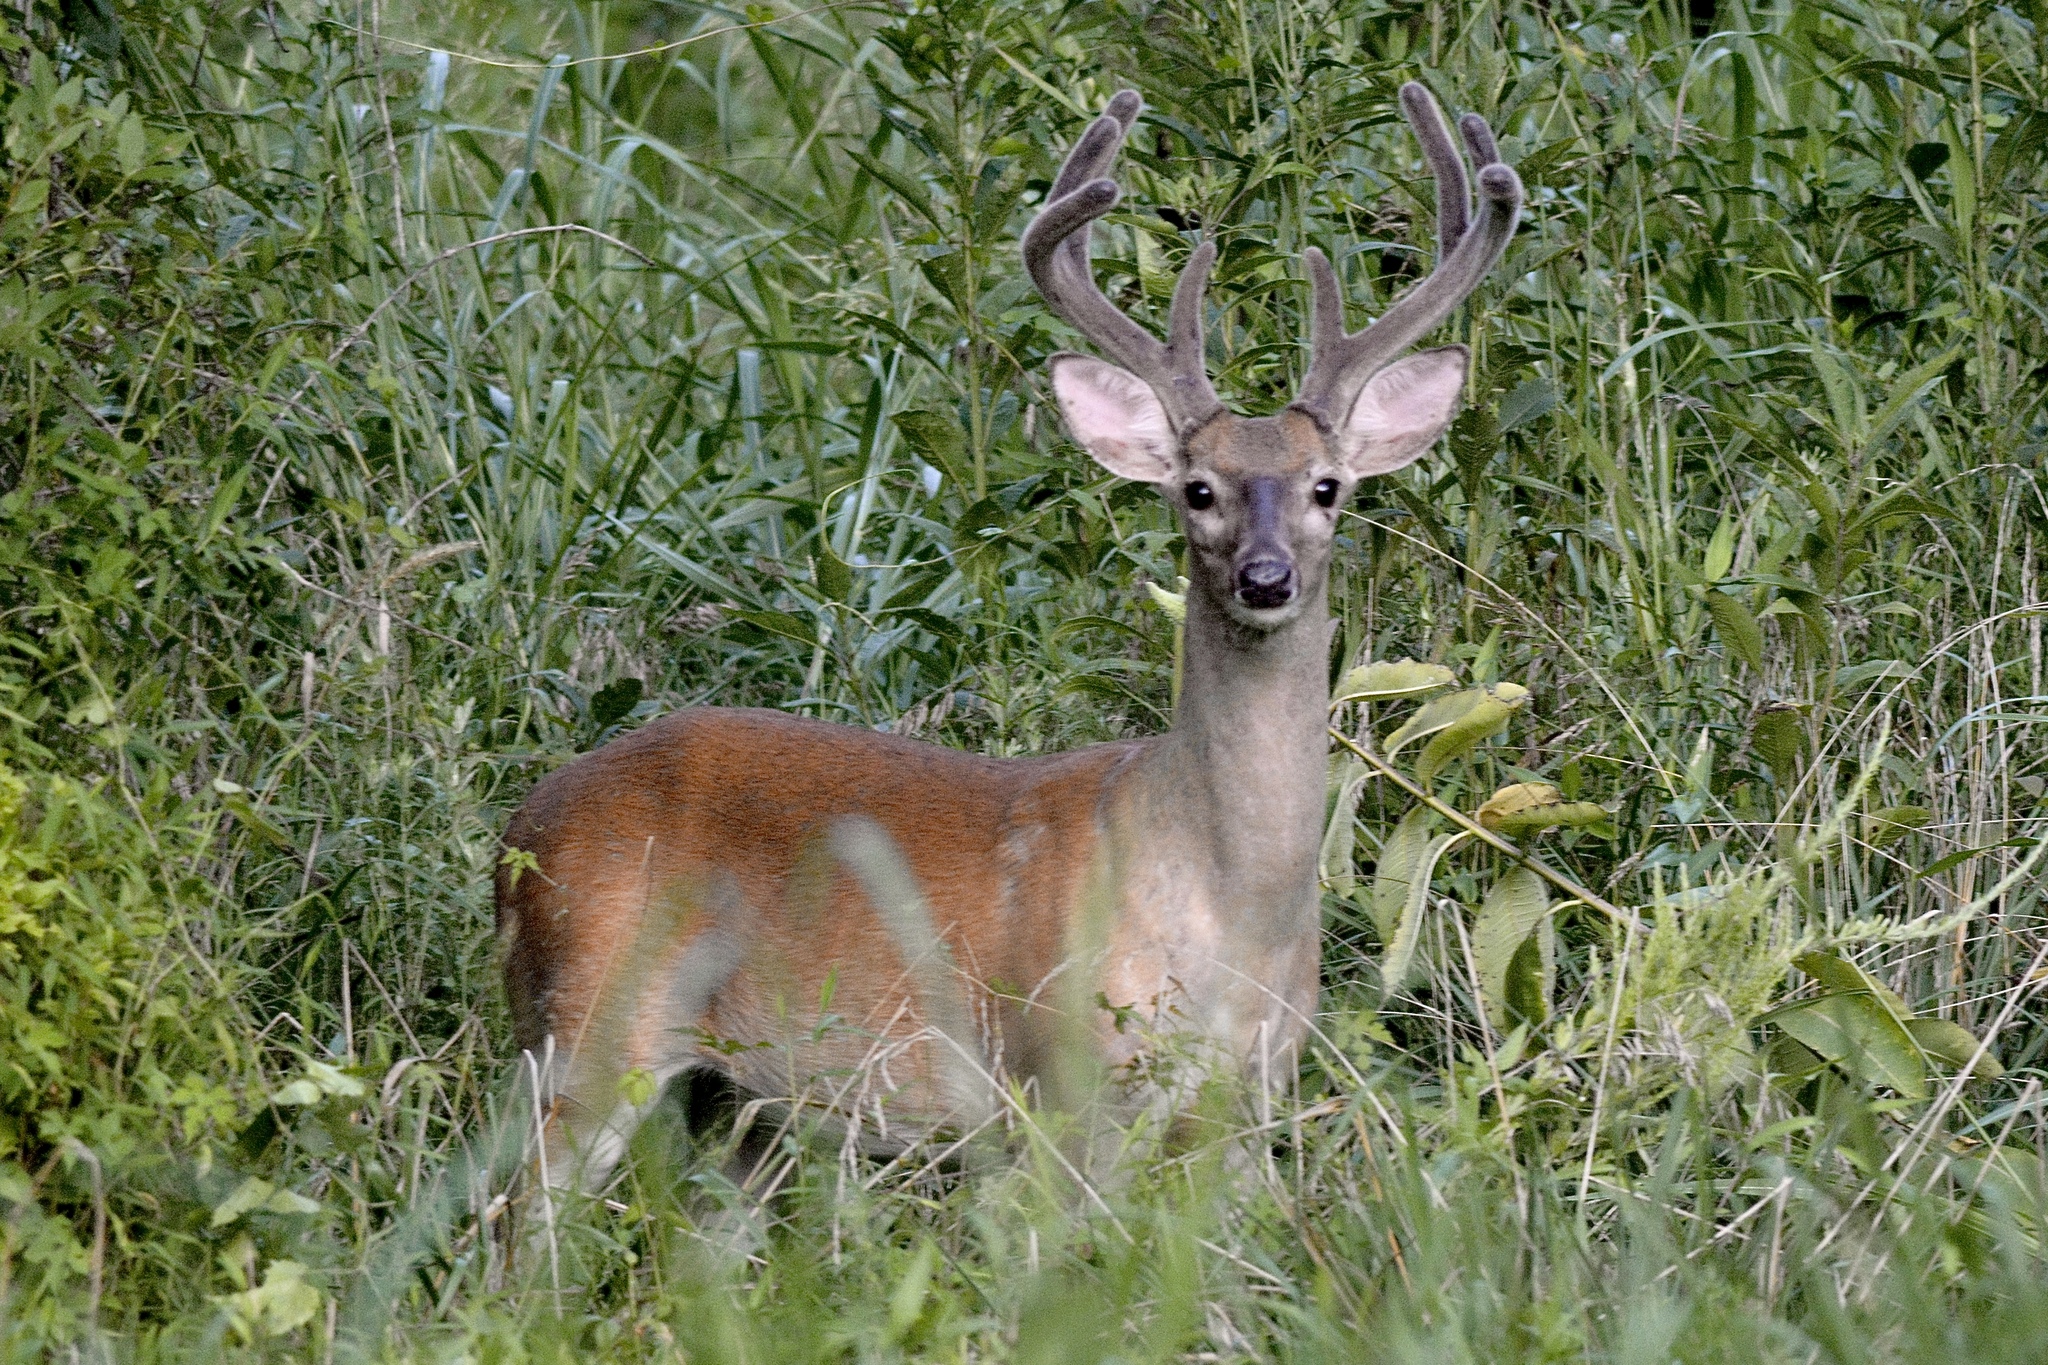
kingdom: Animalia
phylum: Chordata
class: Mammalia
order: Artiodactyla
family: Cervidae
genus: Odocoileus
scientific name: Odocoileus virginianus
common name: White-tailed deer
